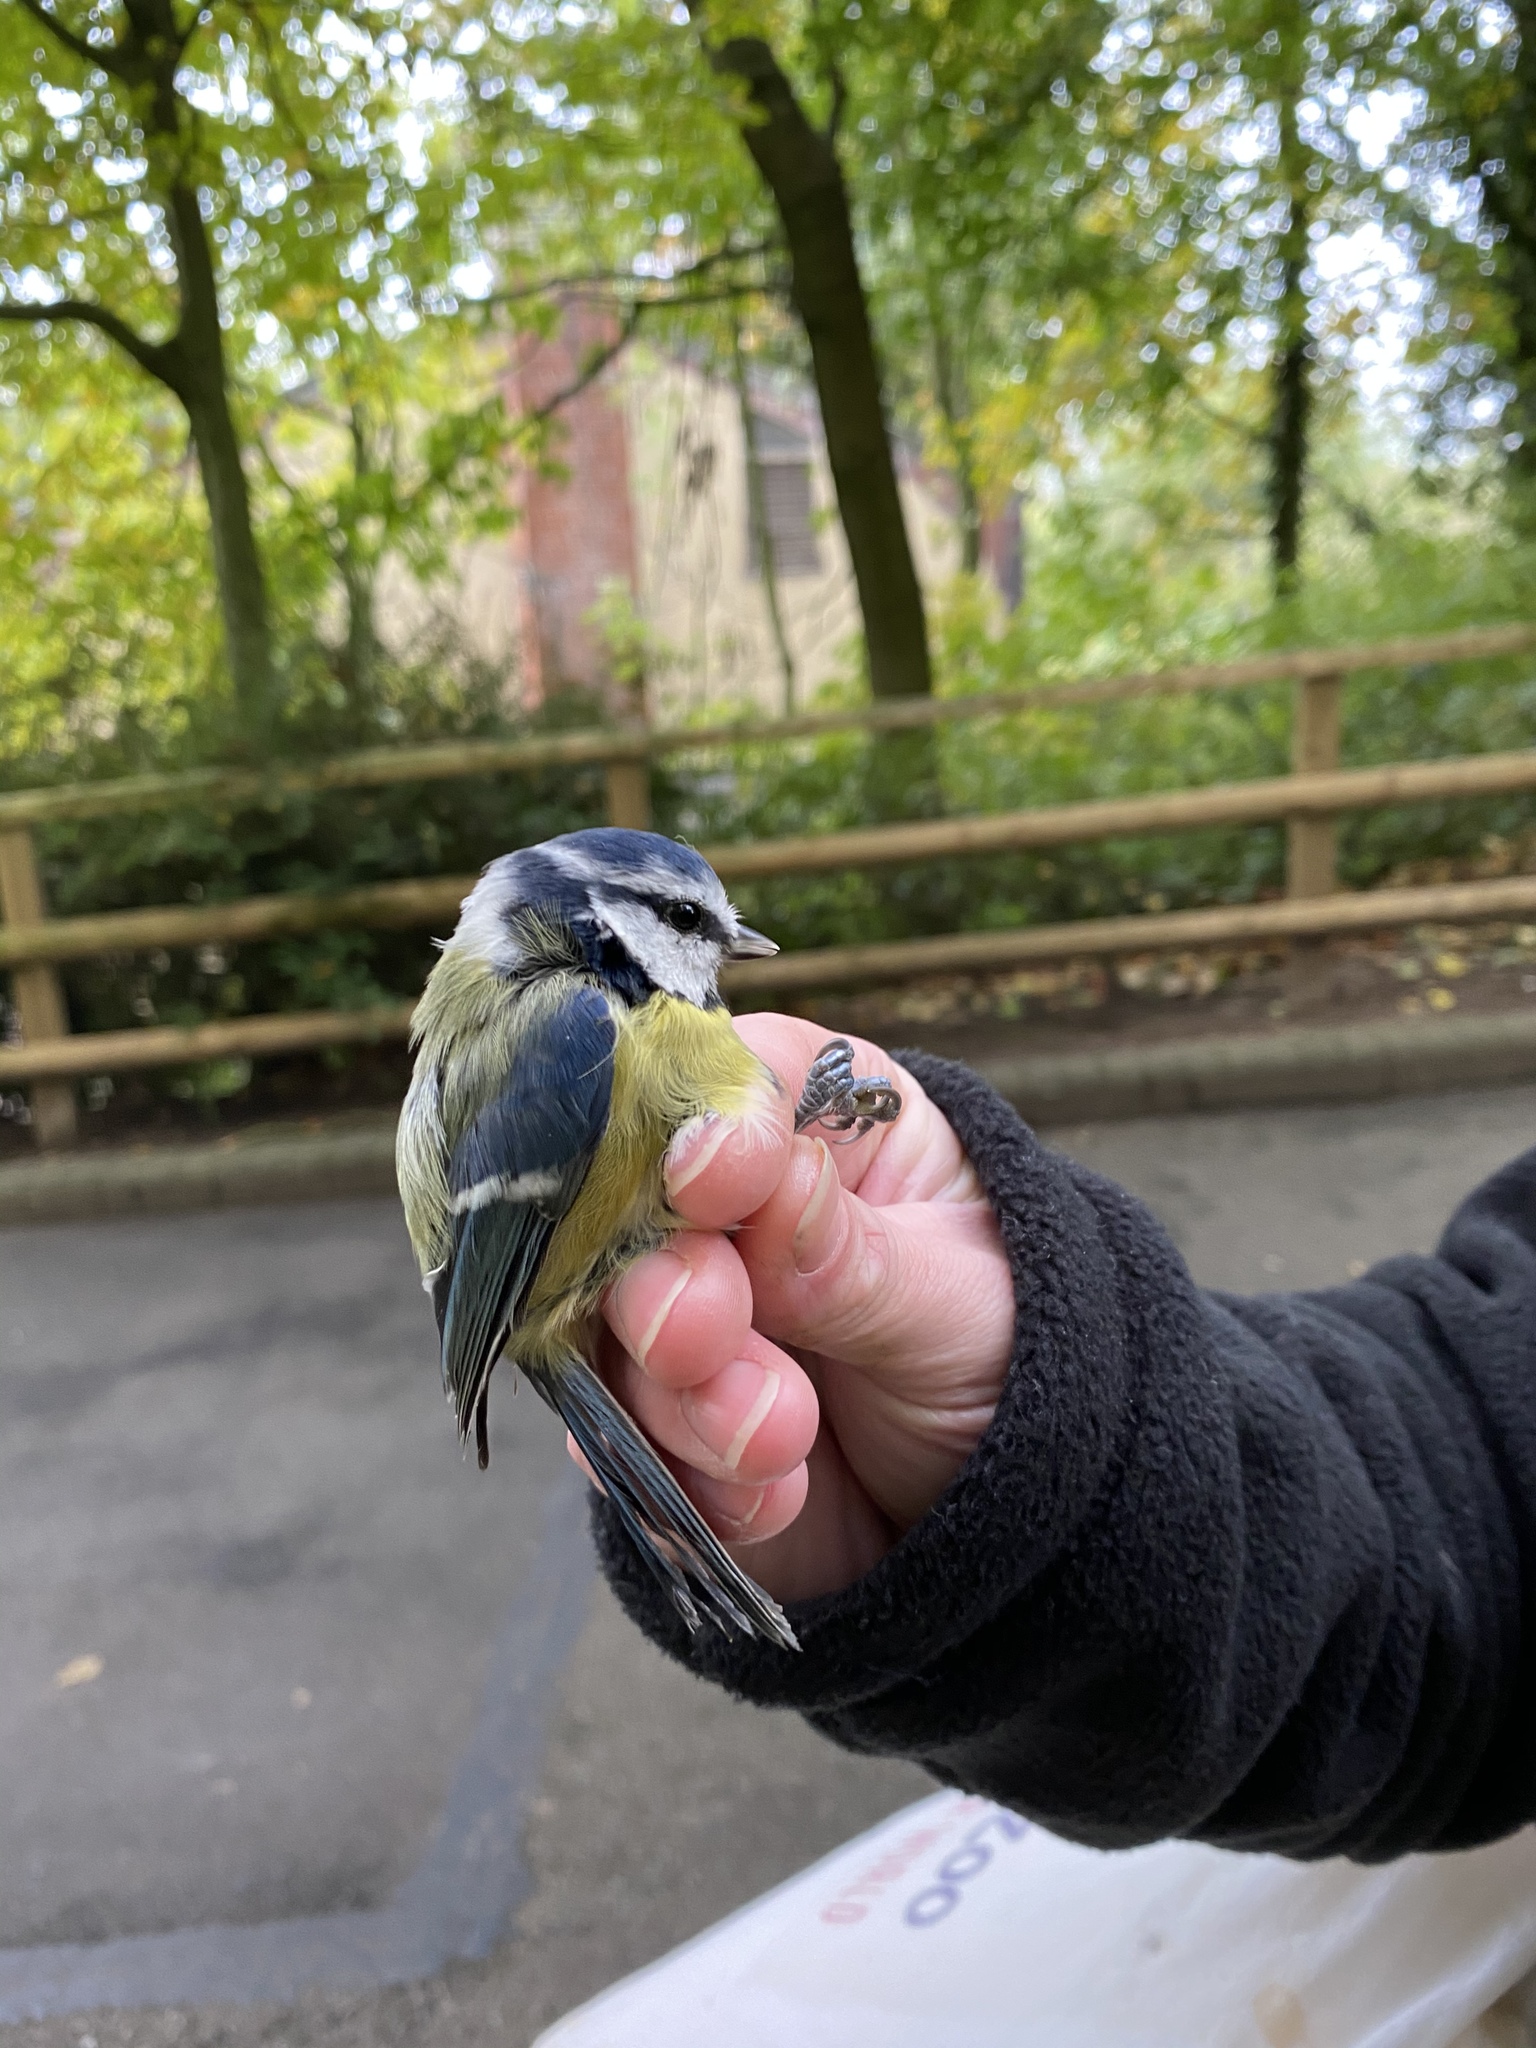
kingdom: Animalia
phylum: Chordata
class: Aves
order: Passeriformes
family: Paridae
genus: Cyanistes
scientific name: Cyanistes caeruleus
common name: Eurasian blue tit
